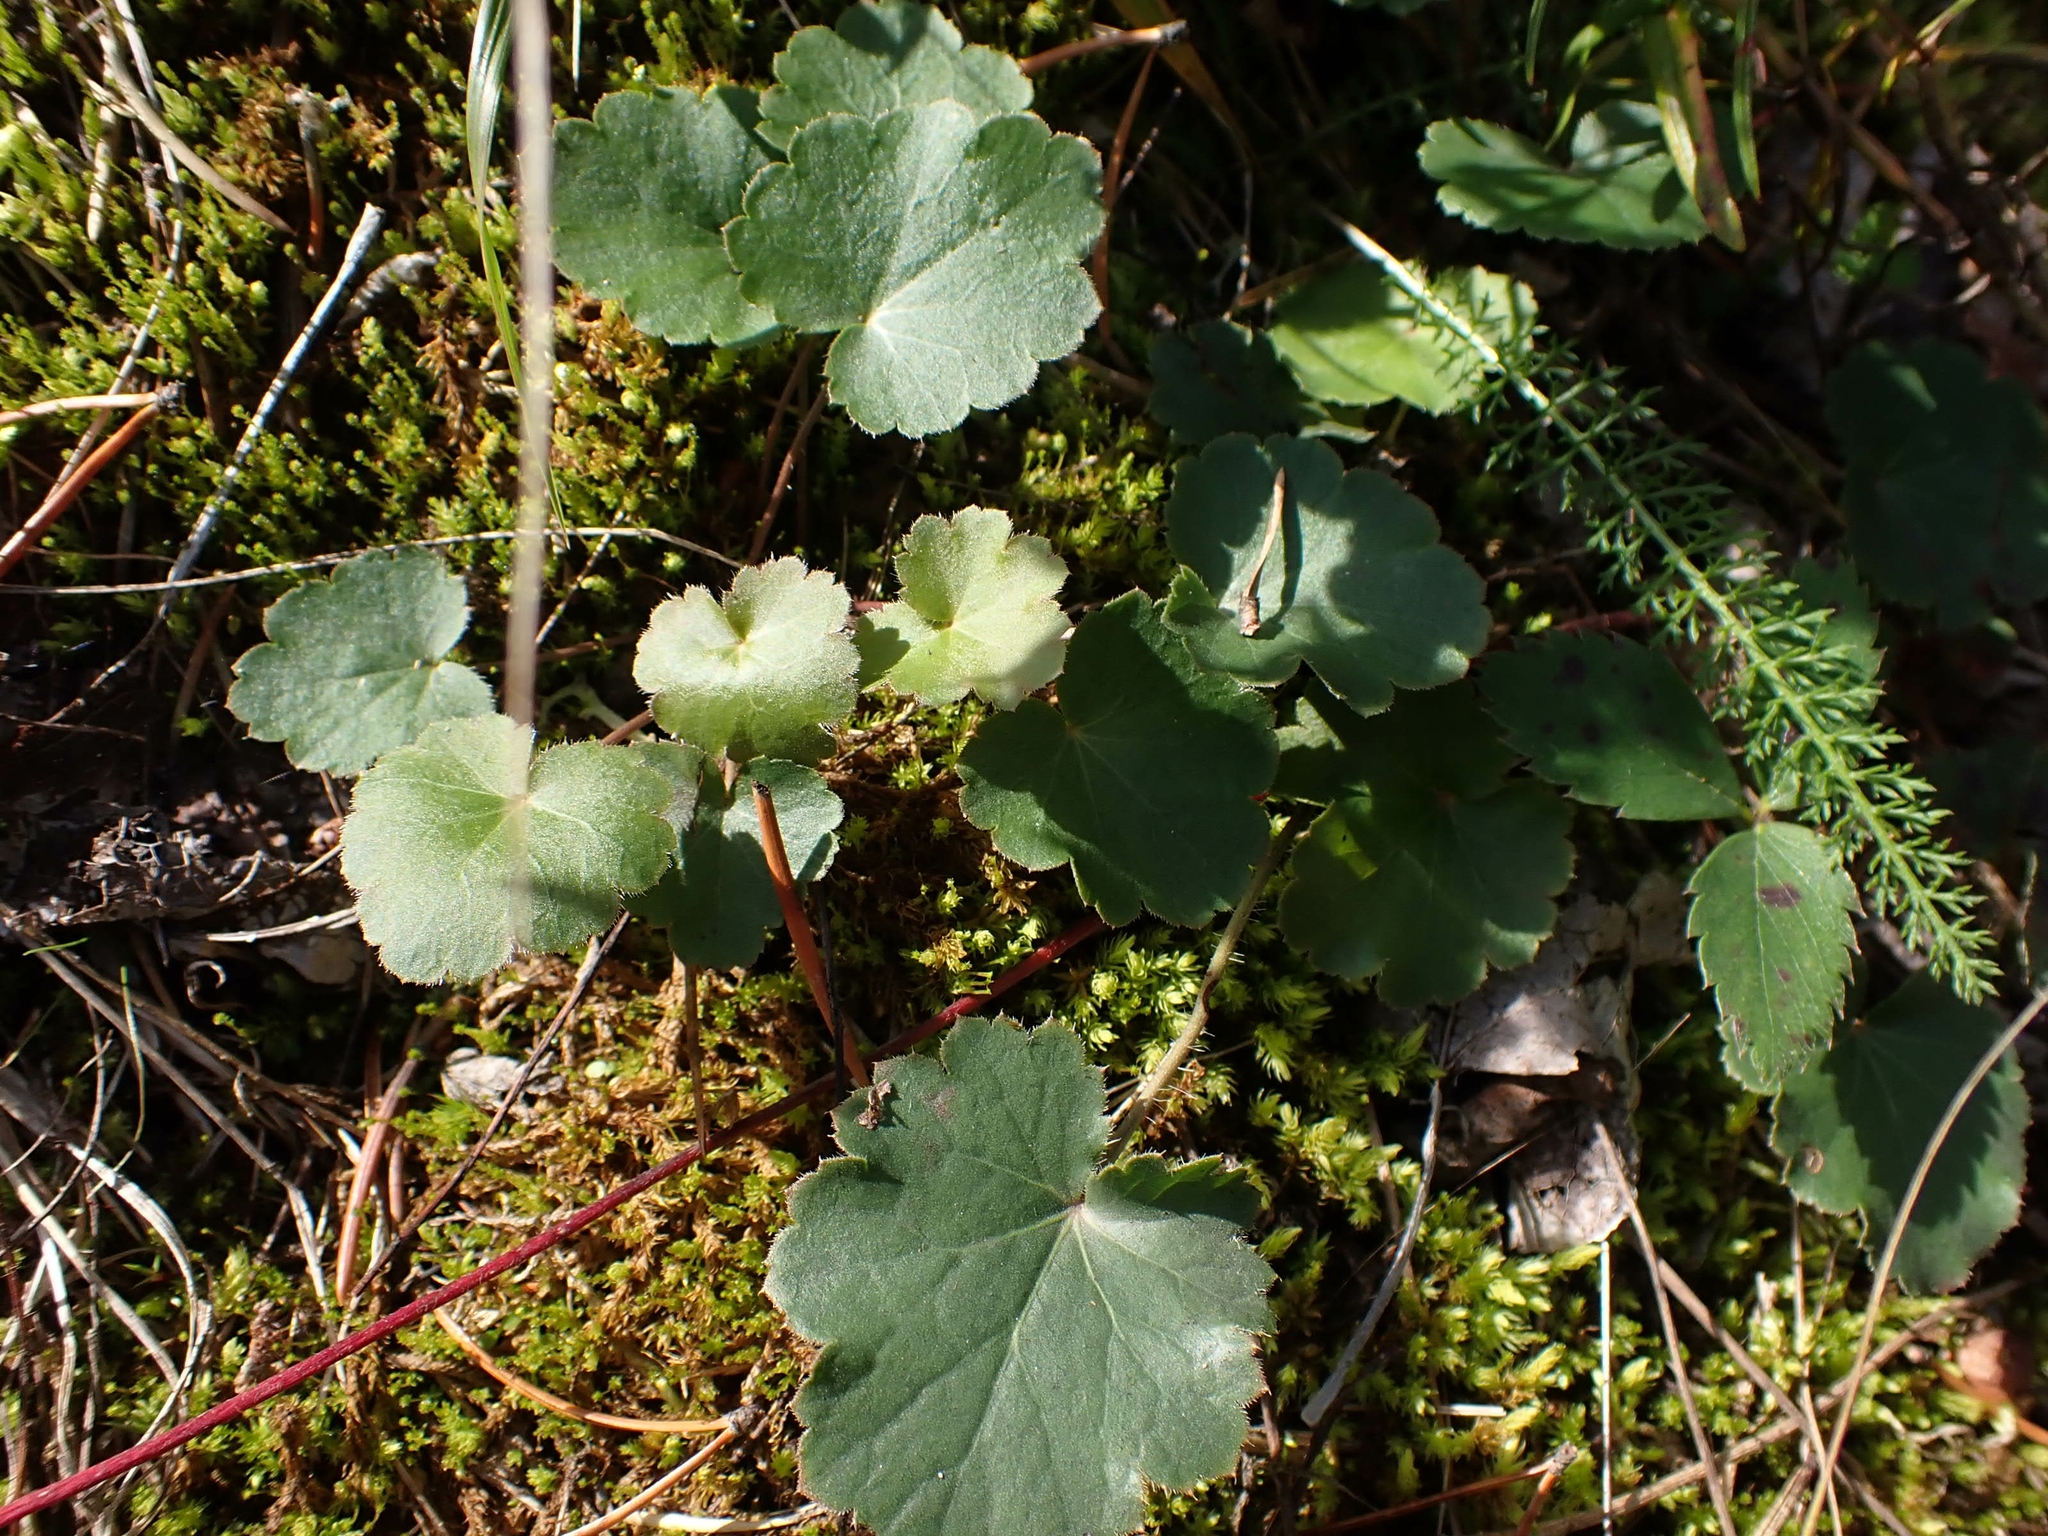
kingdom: Plantae
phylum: Tracheophyta
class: Magnoliopsida
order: Saxifragales
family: Saxifragaceae
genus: Heuchera
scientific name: Heuchera richardsonii
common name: Richardson's alumroot
